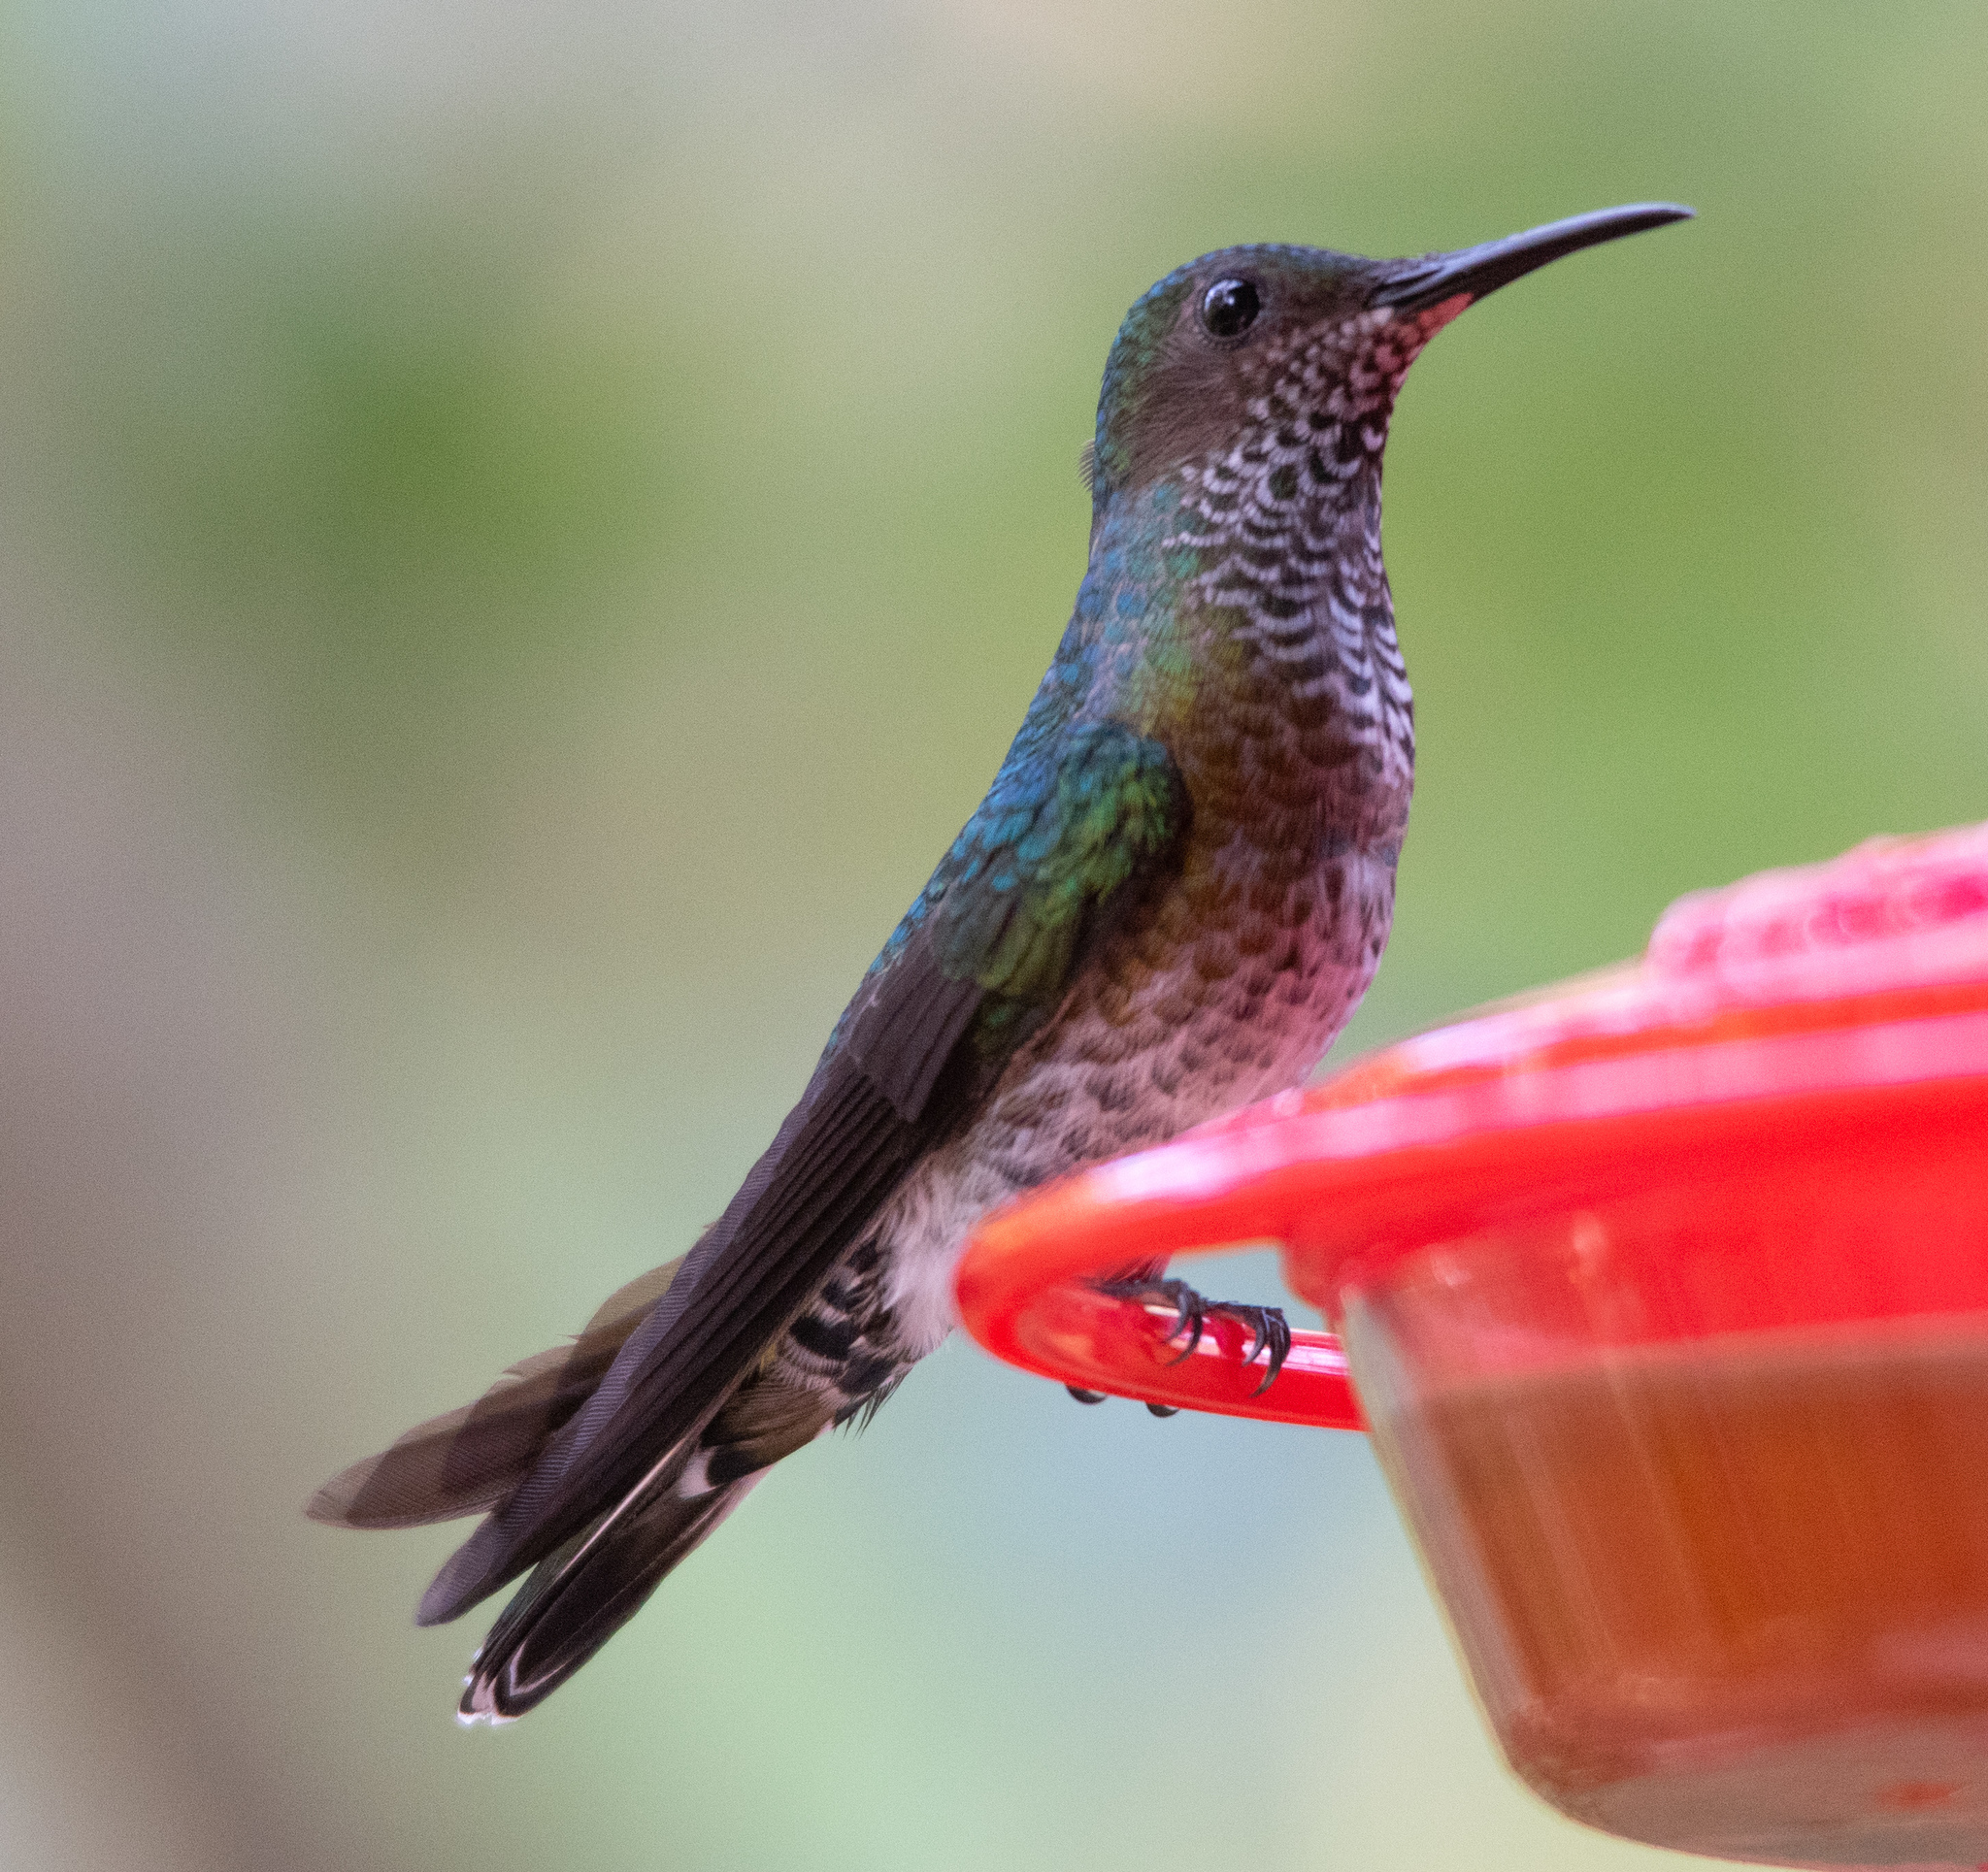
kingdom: Animalia
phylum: Chordata
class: Aves
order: Apodiformes
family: Trochilidae
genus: Florisuga
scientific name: Florisuga mellivora
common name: White-necked jacobin
